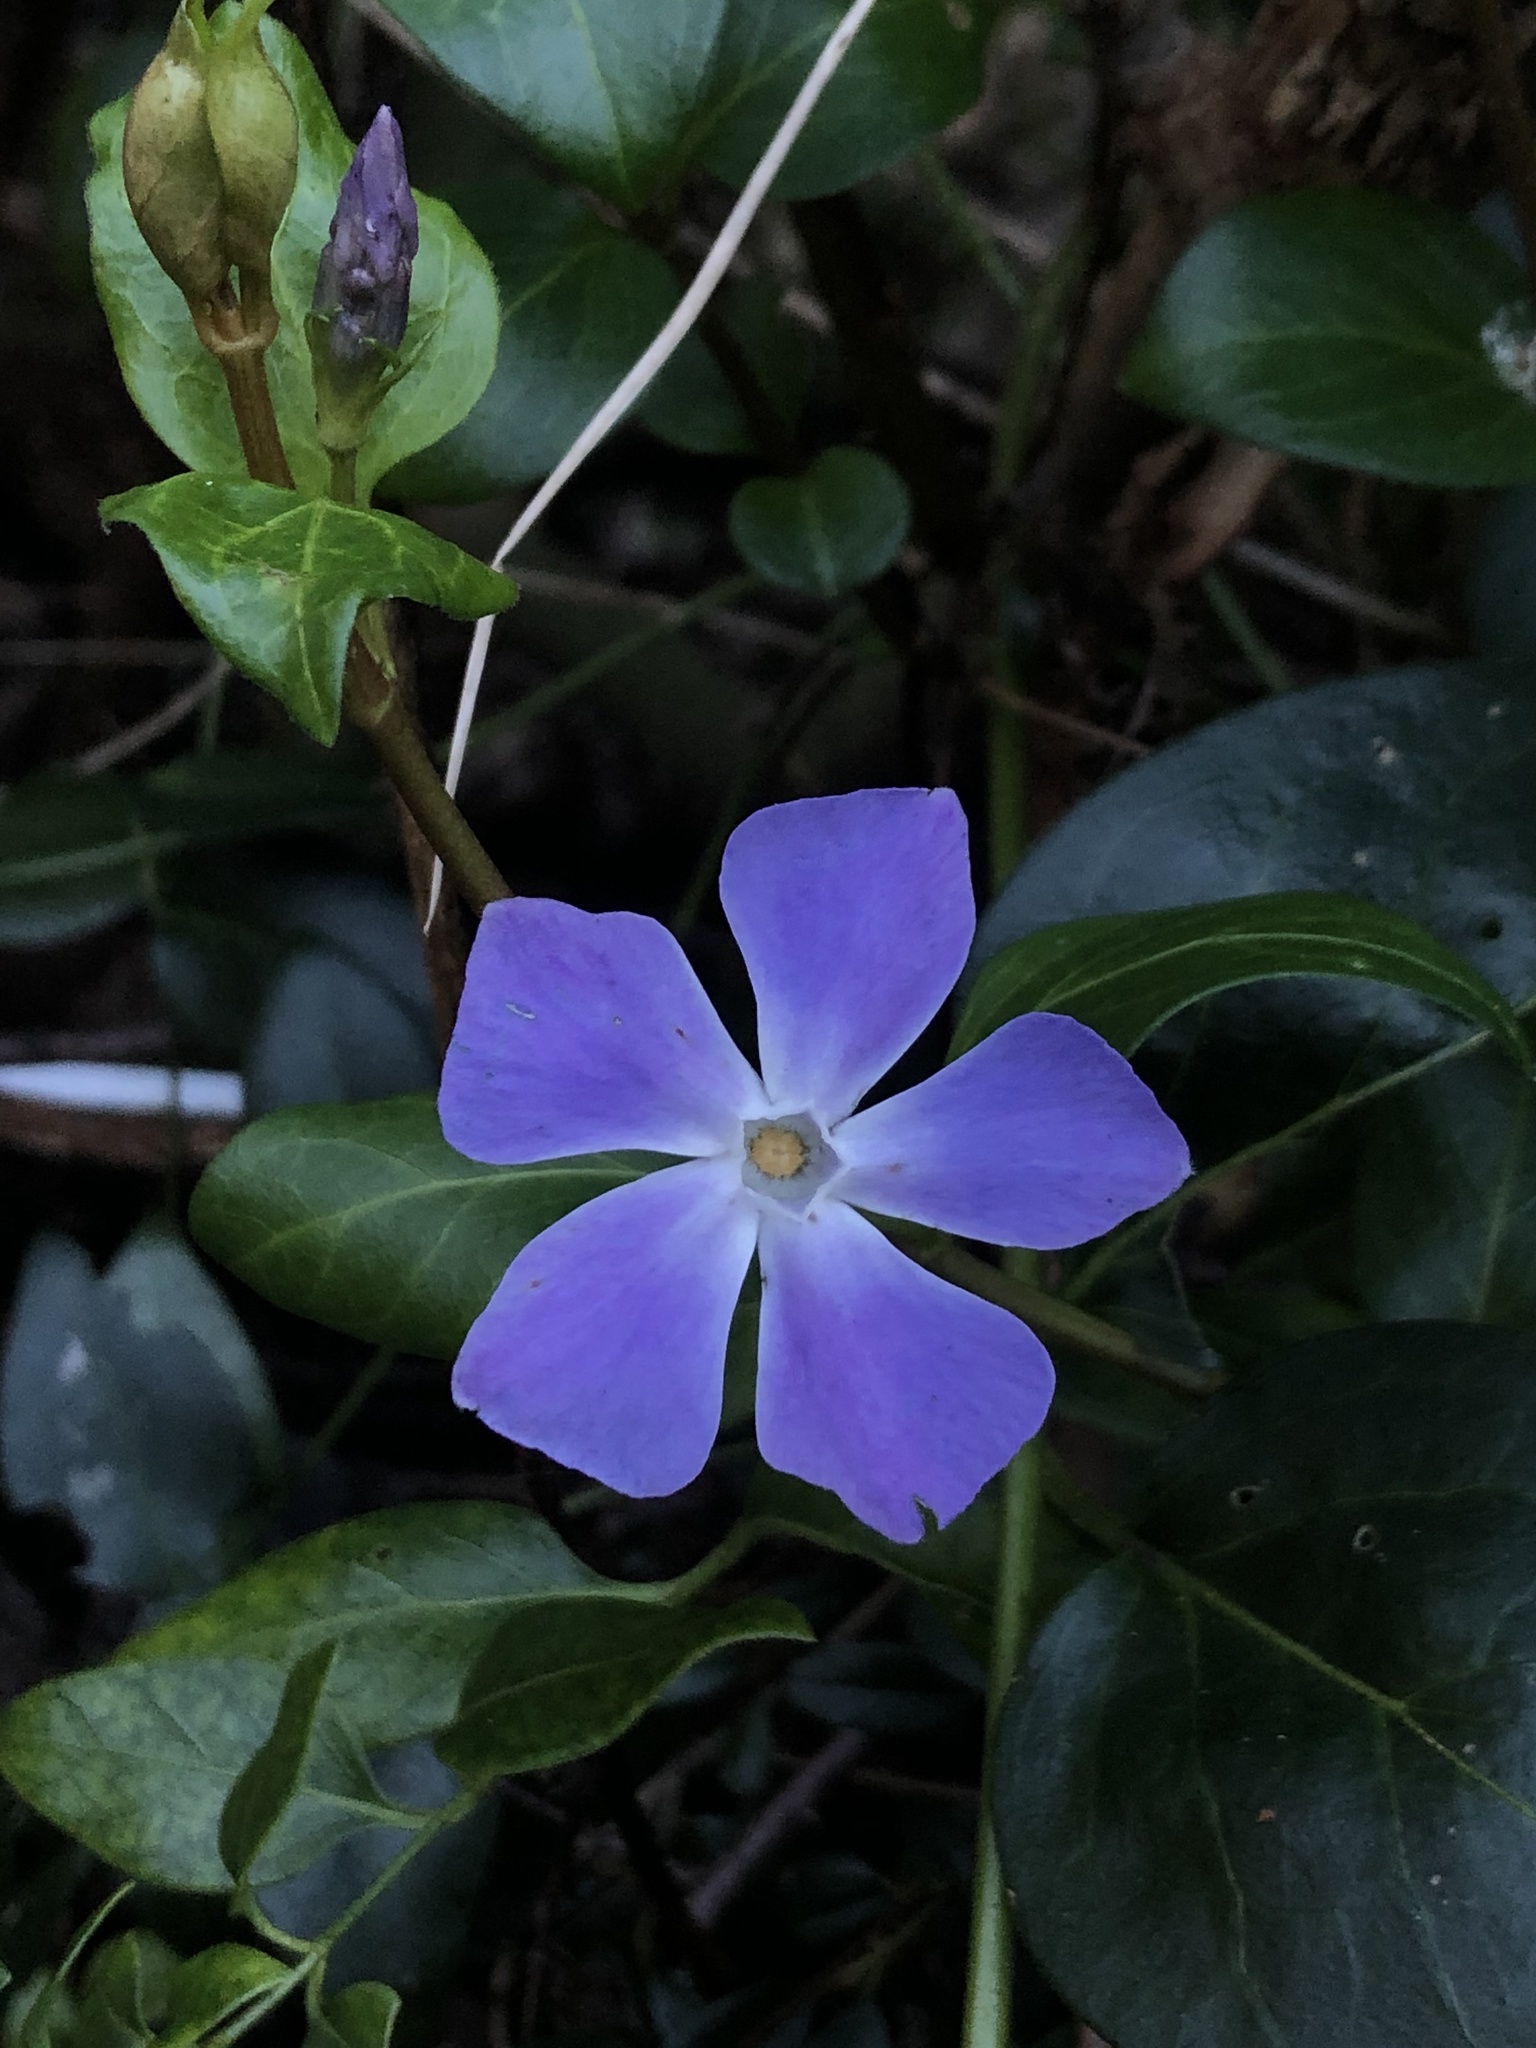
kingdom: Plantae
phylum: Tracheophyta
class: Magnoliopsida
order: Gentianales
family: Apocynaceae
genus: Vinca
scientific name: Vinca major
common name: Greater periwinkle
